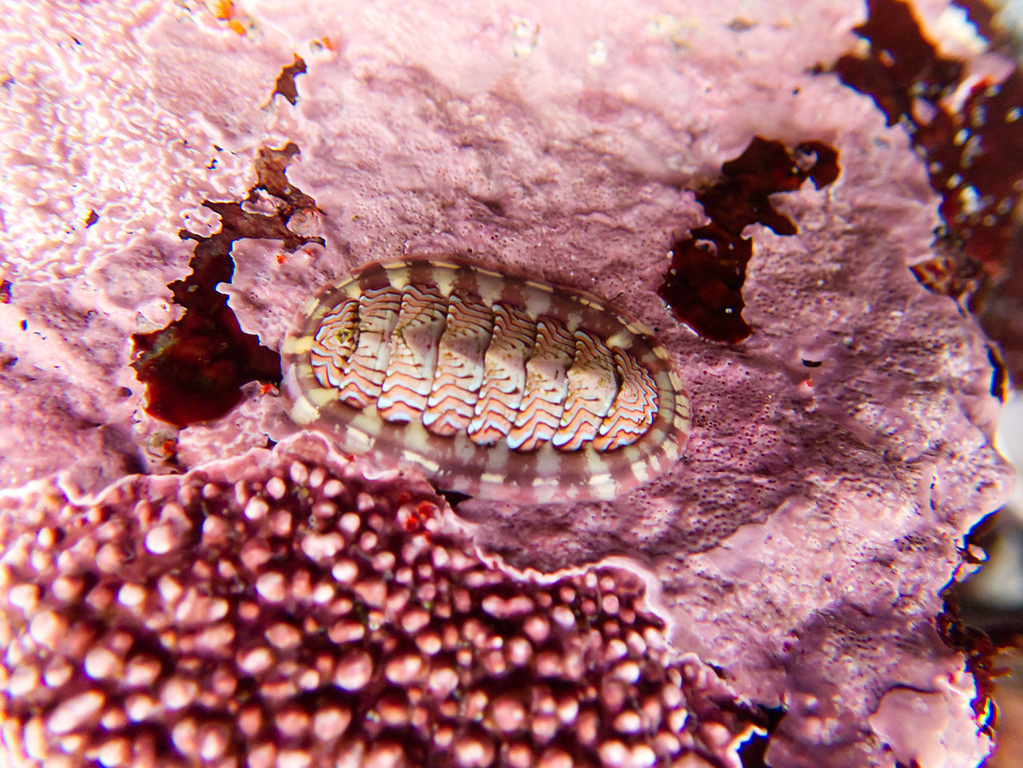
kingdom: Animalia
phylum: Mollusca
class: Polyplacophora
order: Chitonida
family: Tonicellidae
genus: Tonicella
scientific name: Tonicella lokii
